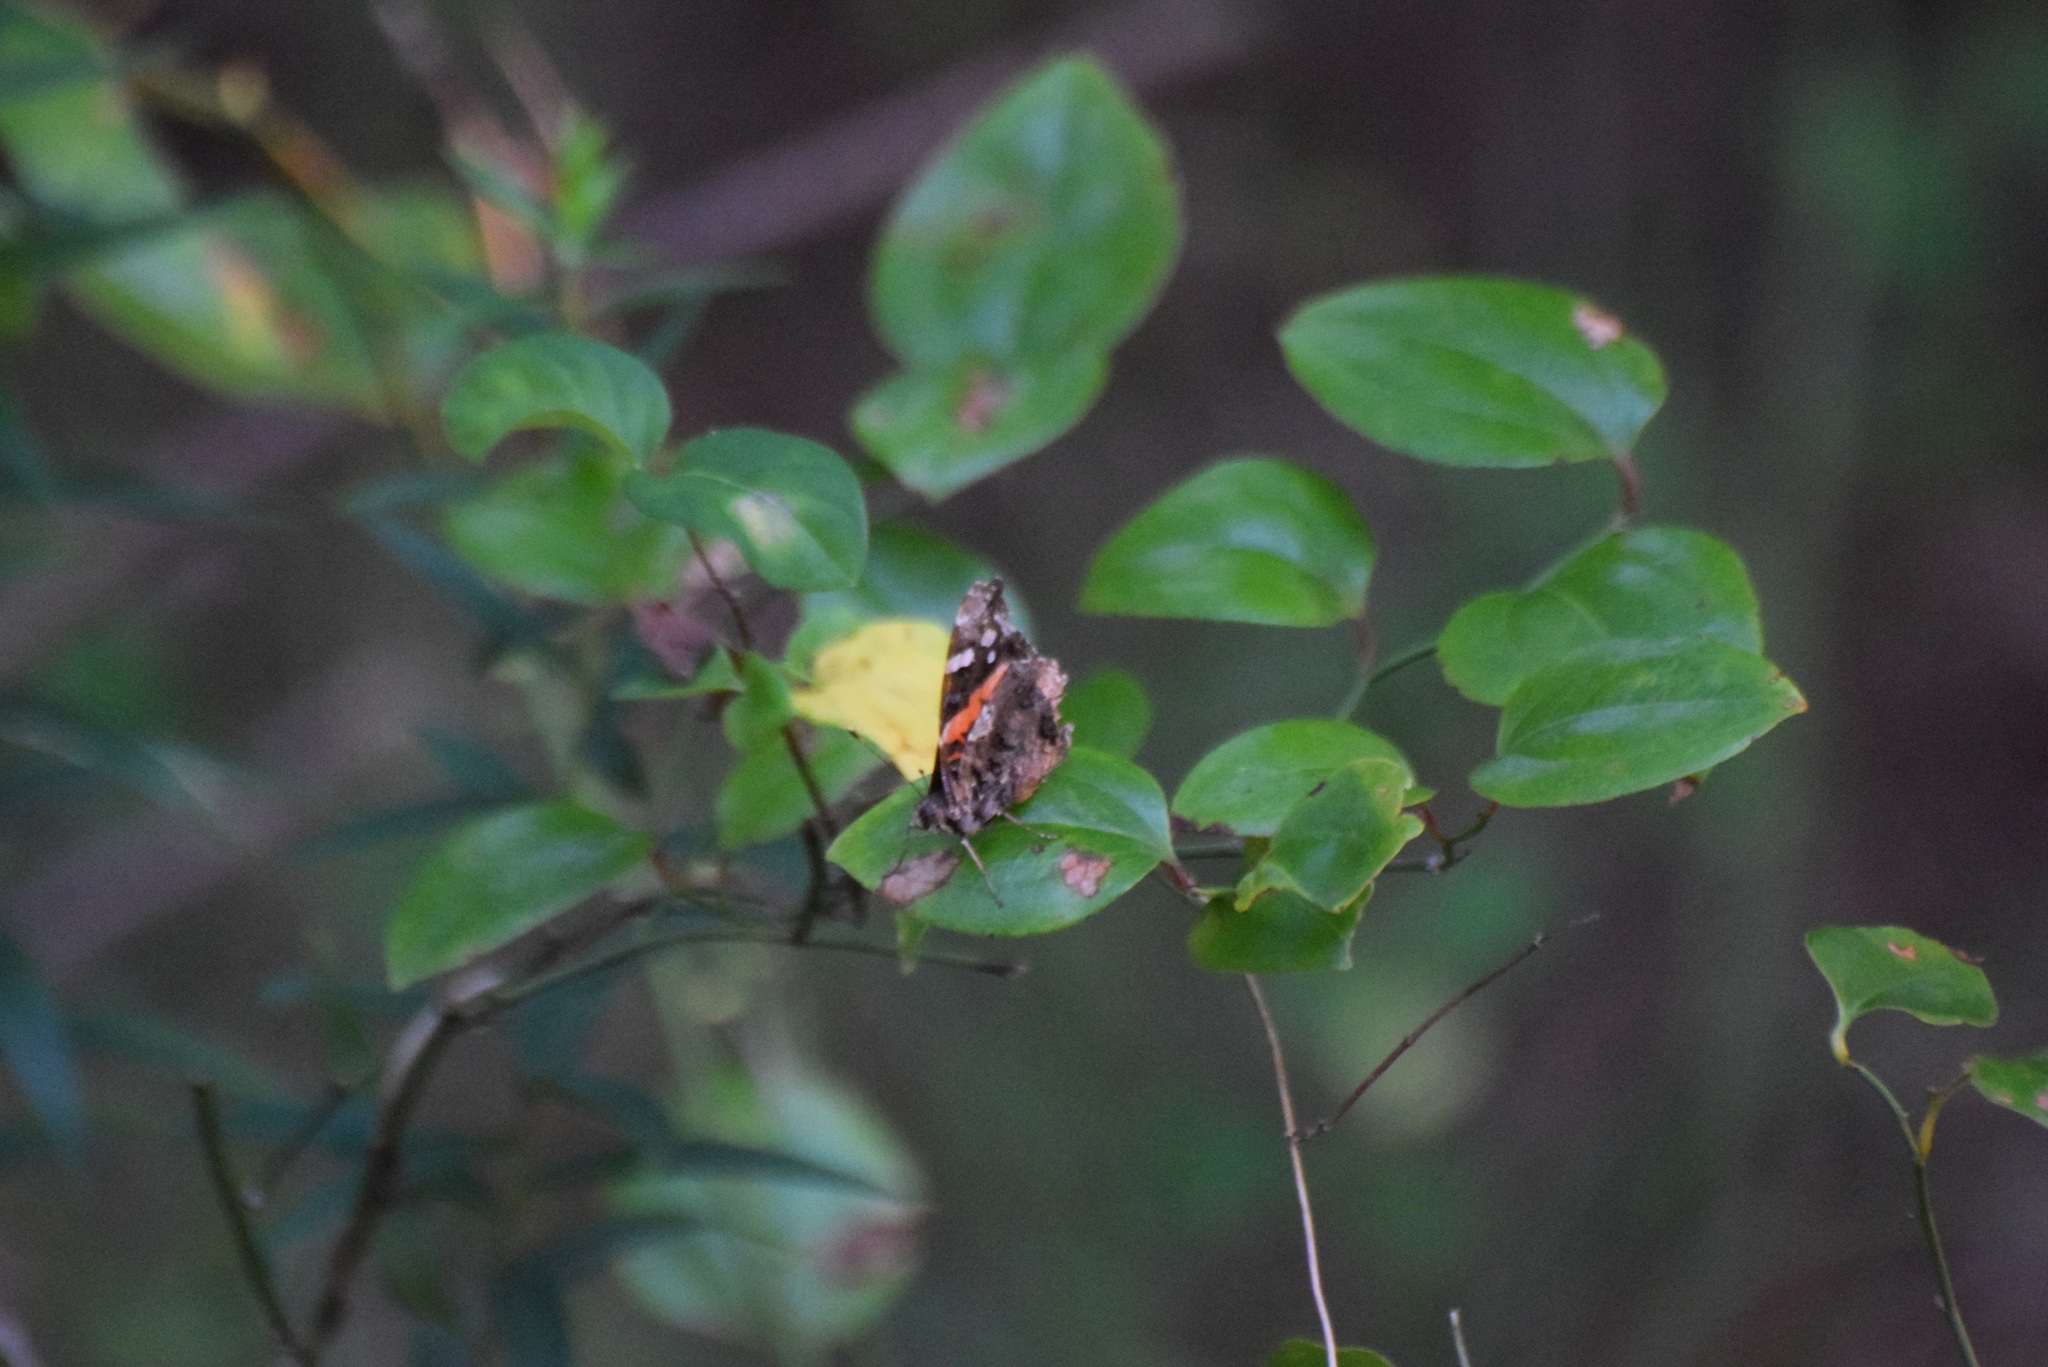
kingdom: Animalia
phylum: Arthropoda
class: Insecta
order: Lepidoptera
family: Nymphalidae
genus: Vanessa
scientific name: Vanessa atalanta
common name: Red admiral
